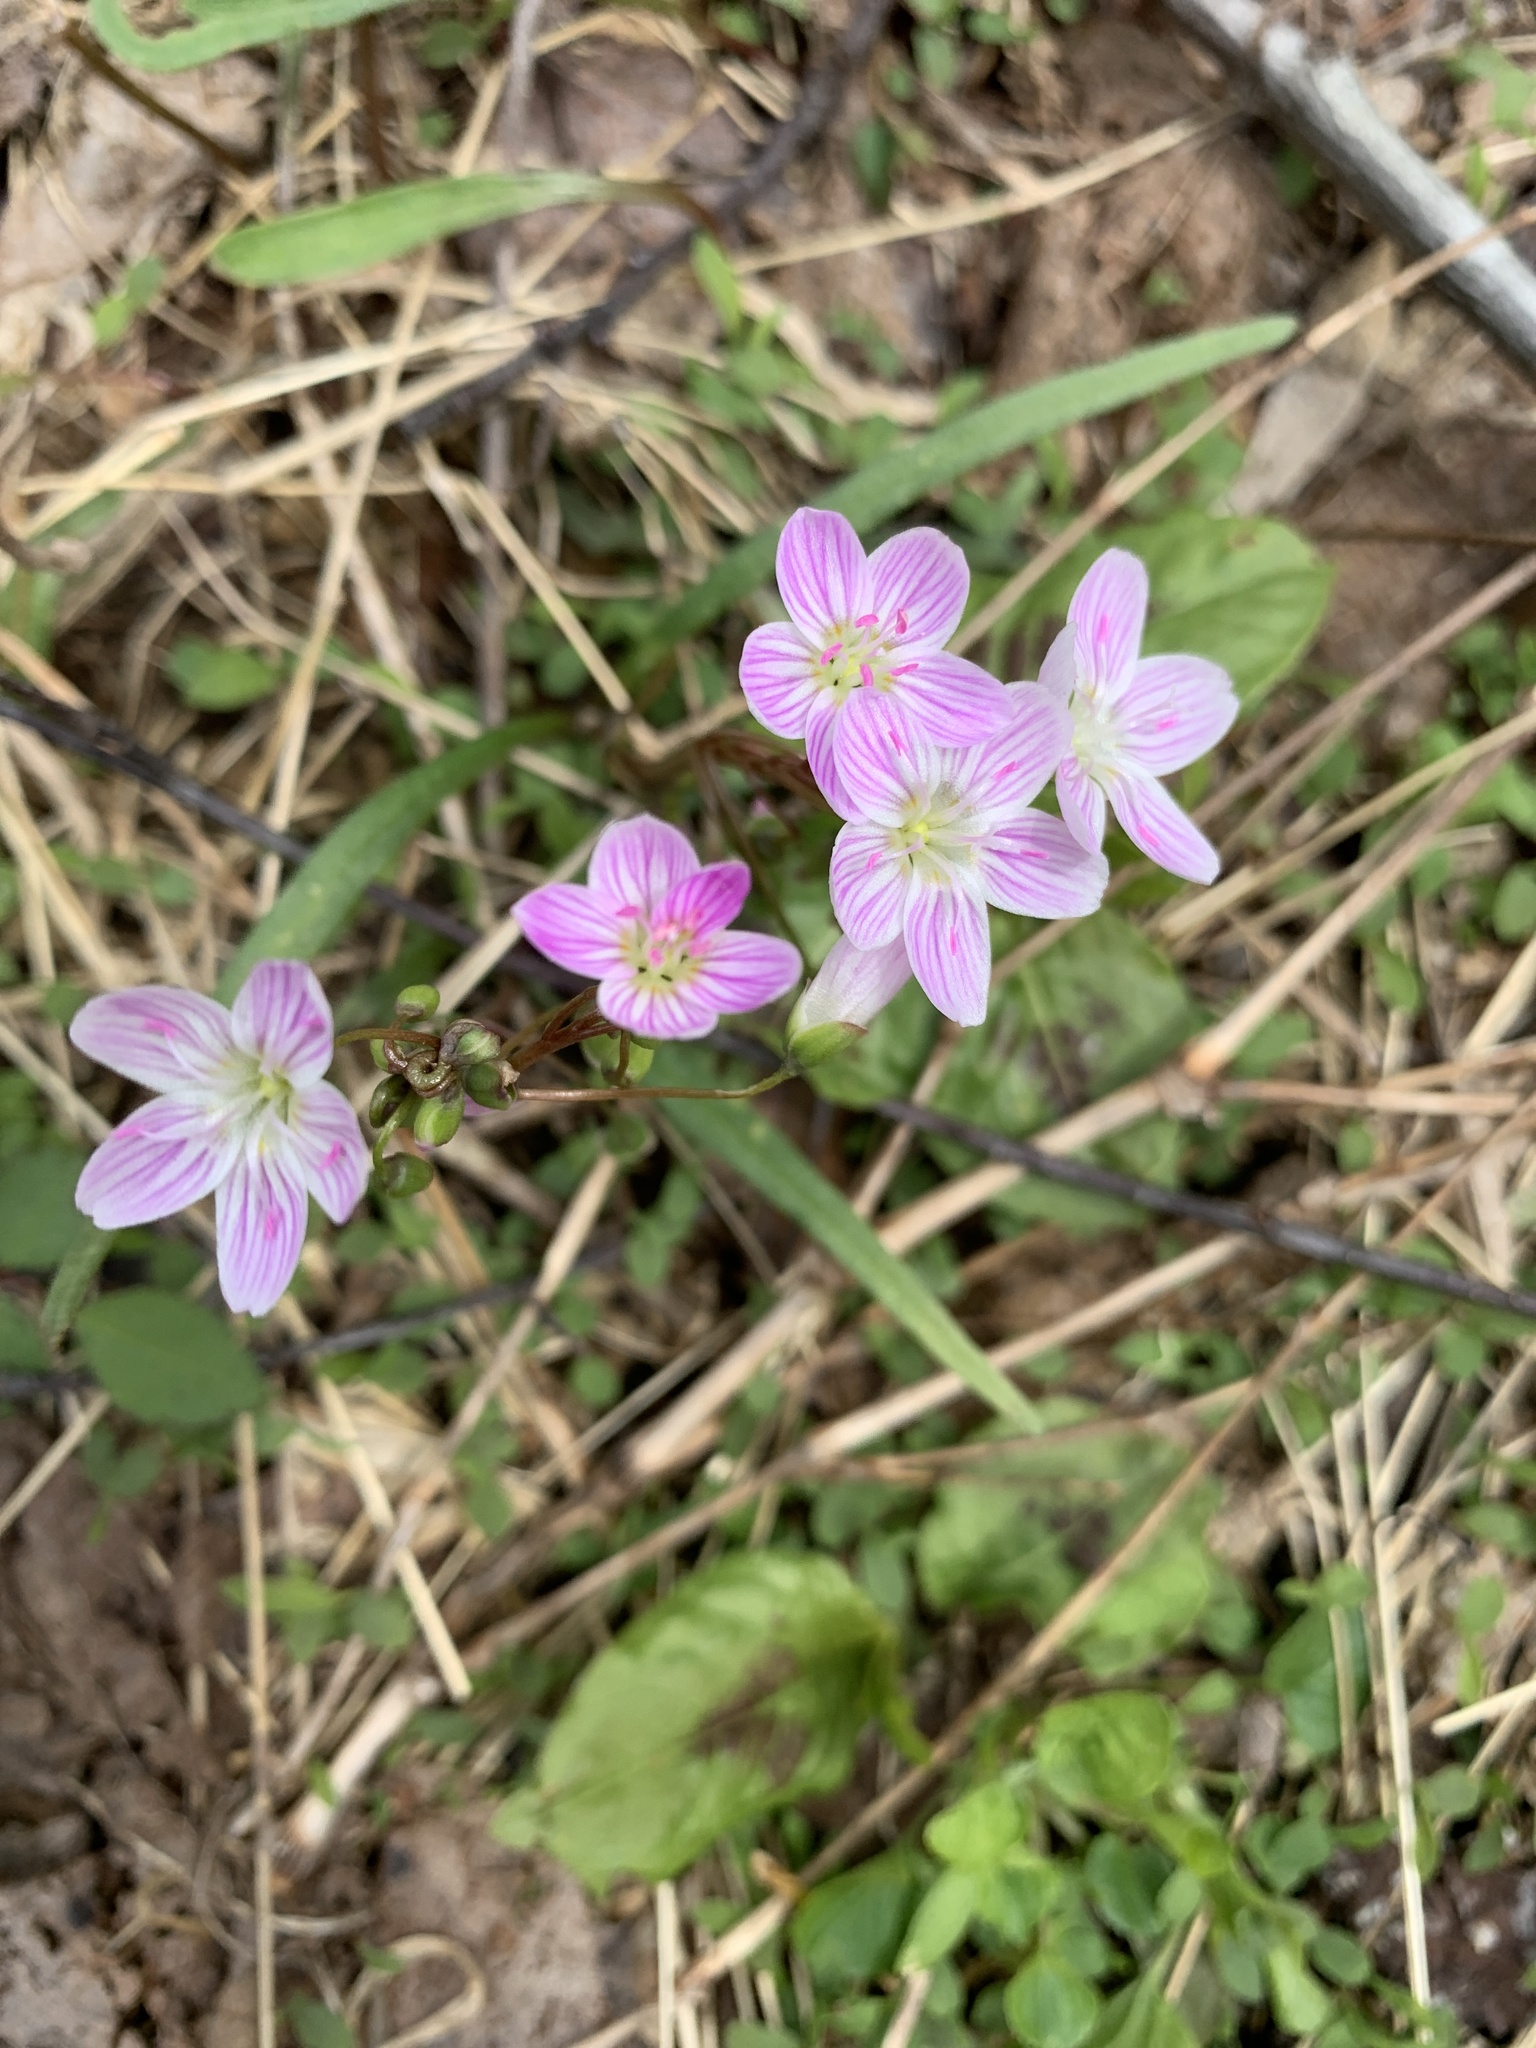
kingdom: Plantae
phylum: Tracheophyta
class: Magnoliopsida
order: Caryophyllales
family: Montiaceae
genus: Claytonia
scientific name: Claytonia virginica
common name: Virginia springbeauty
